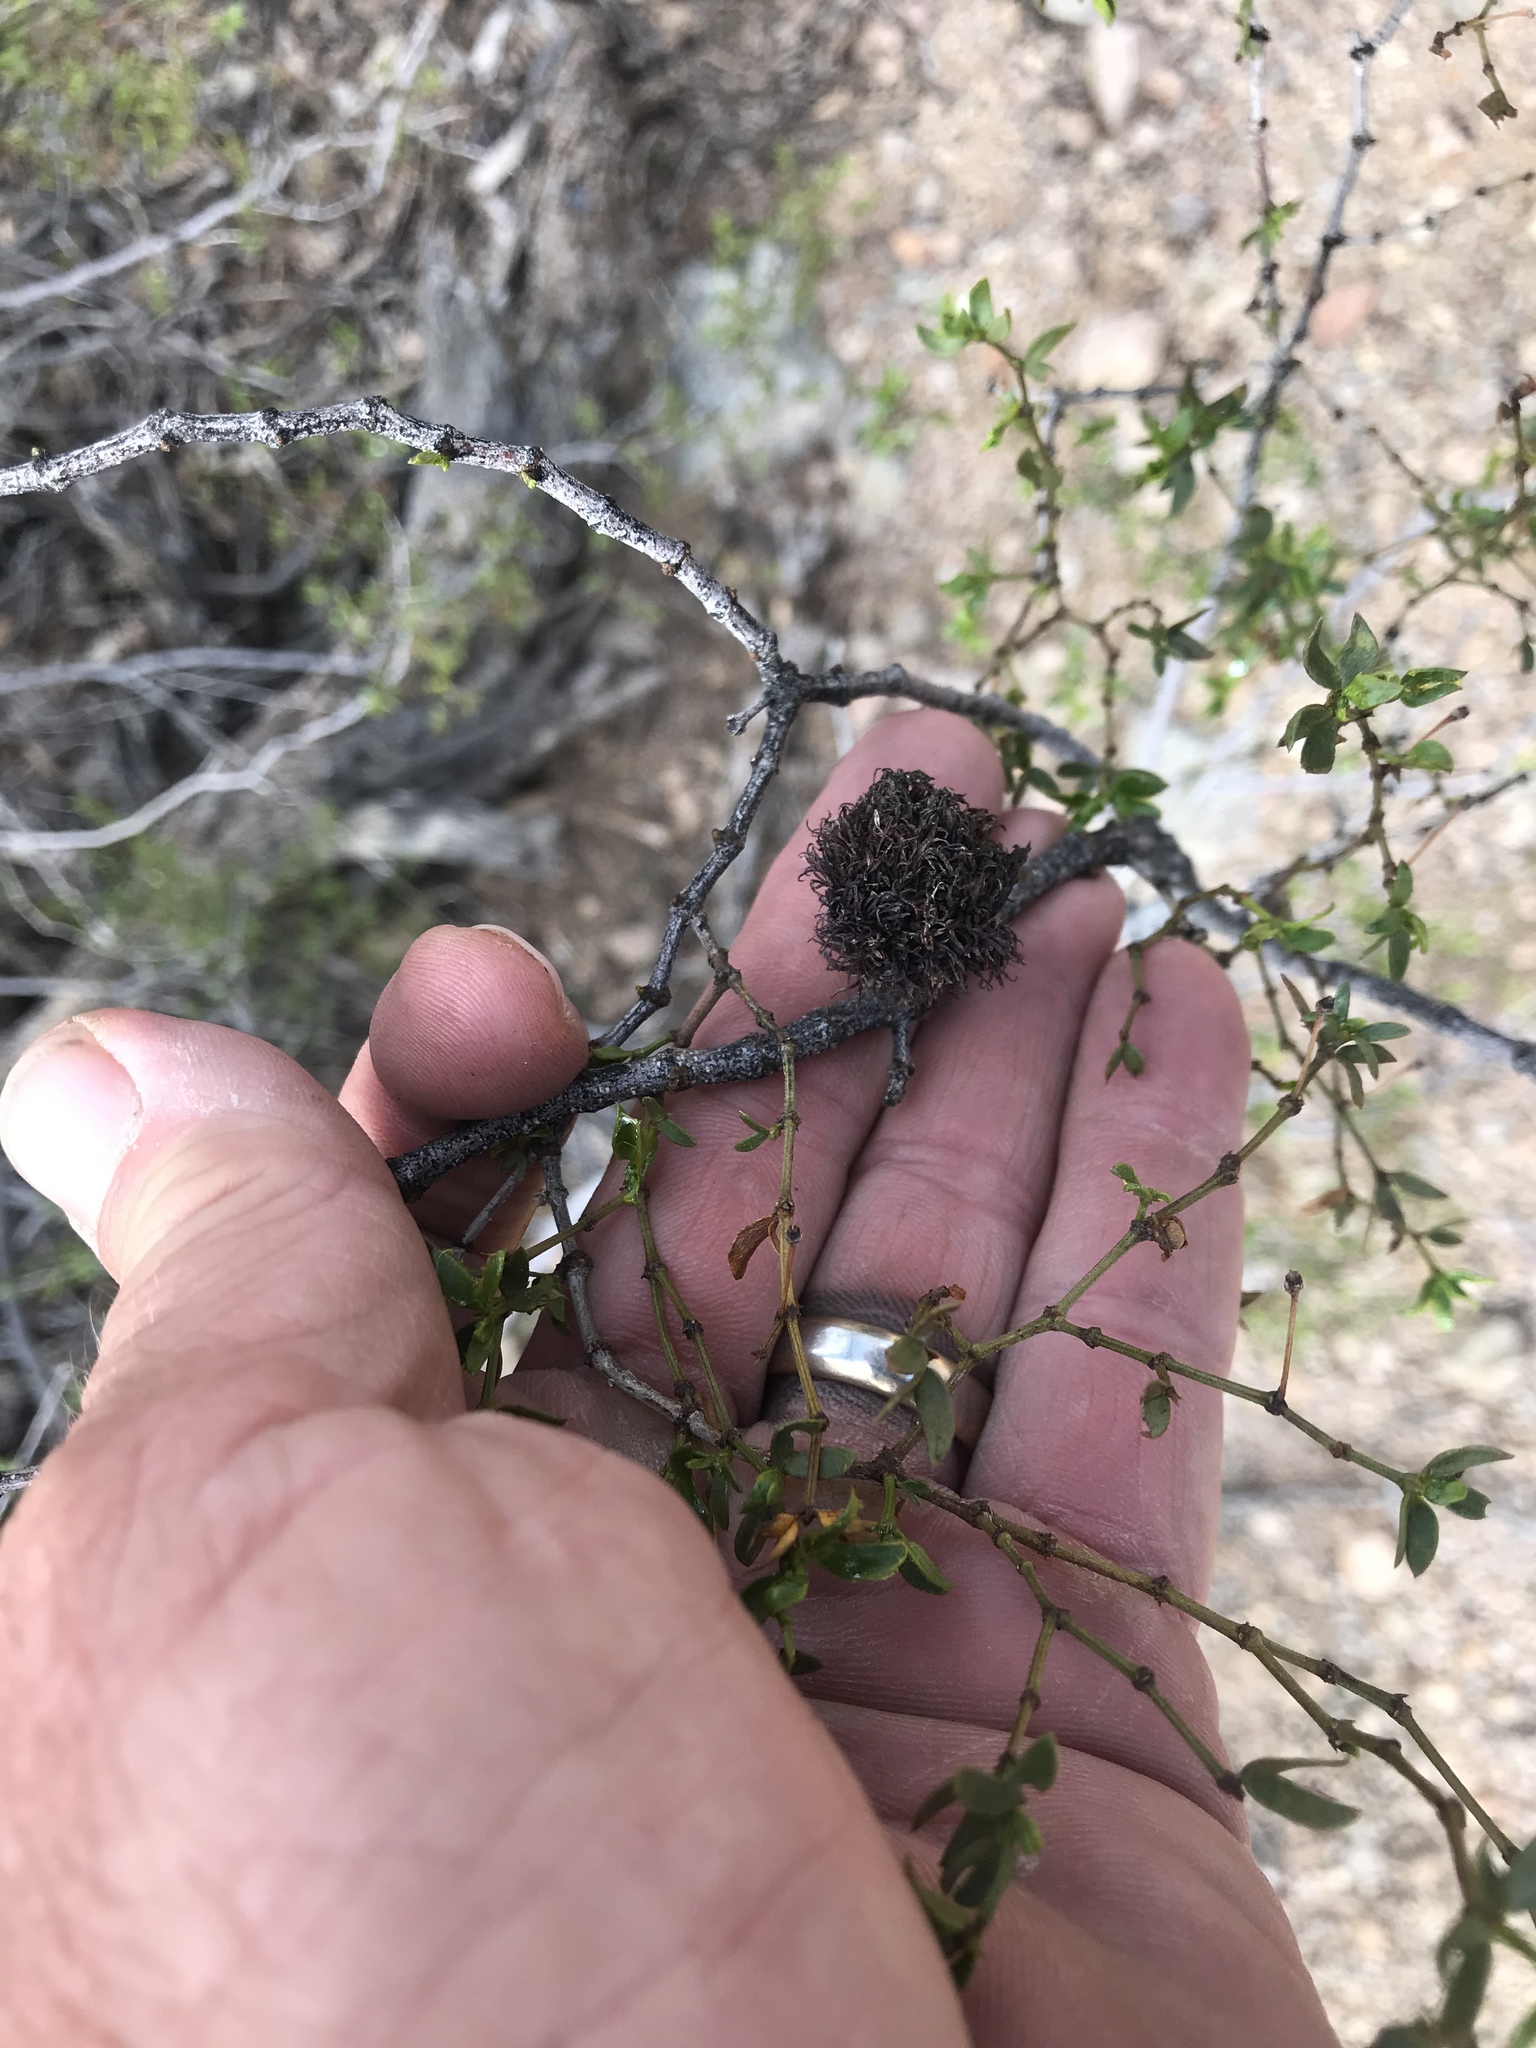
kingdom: Animalia
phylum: Arthropoda
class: Insecta
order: Diptera
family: Cecidomyiidae
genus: Asphondylia
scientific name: Asphondylia auripila
